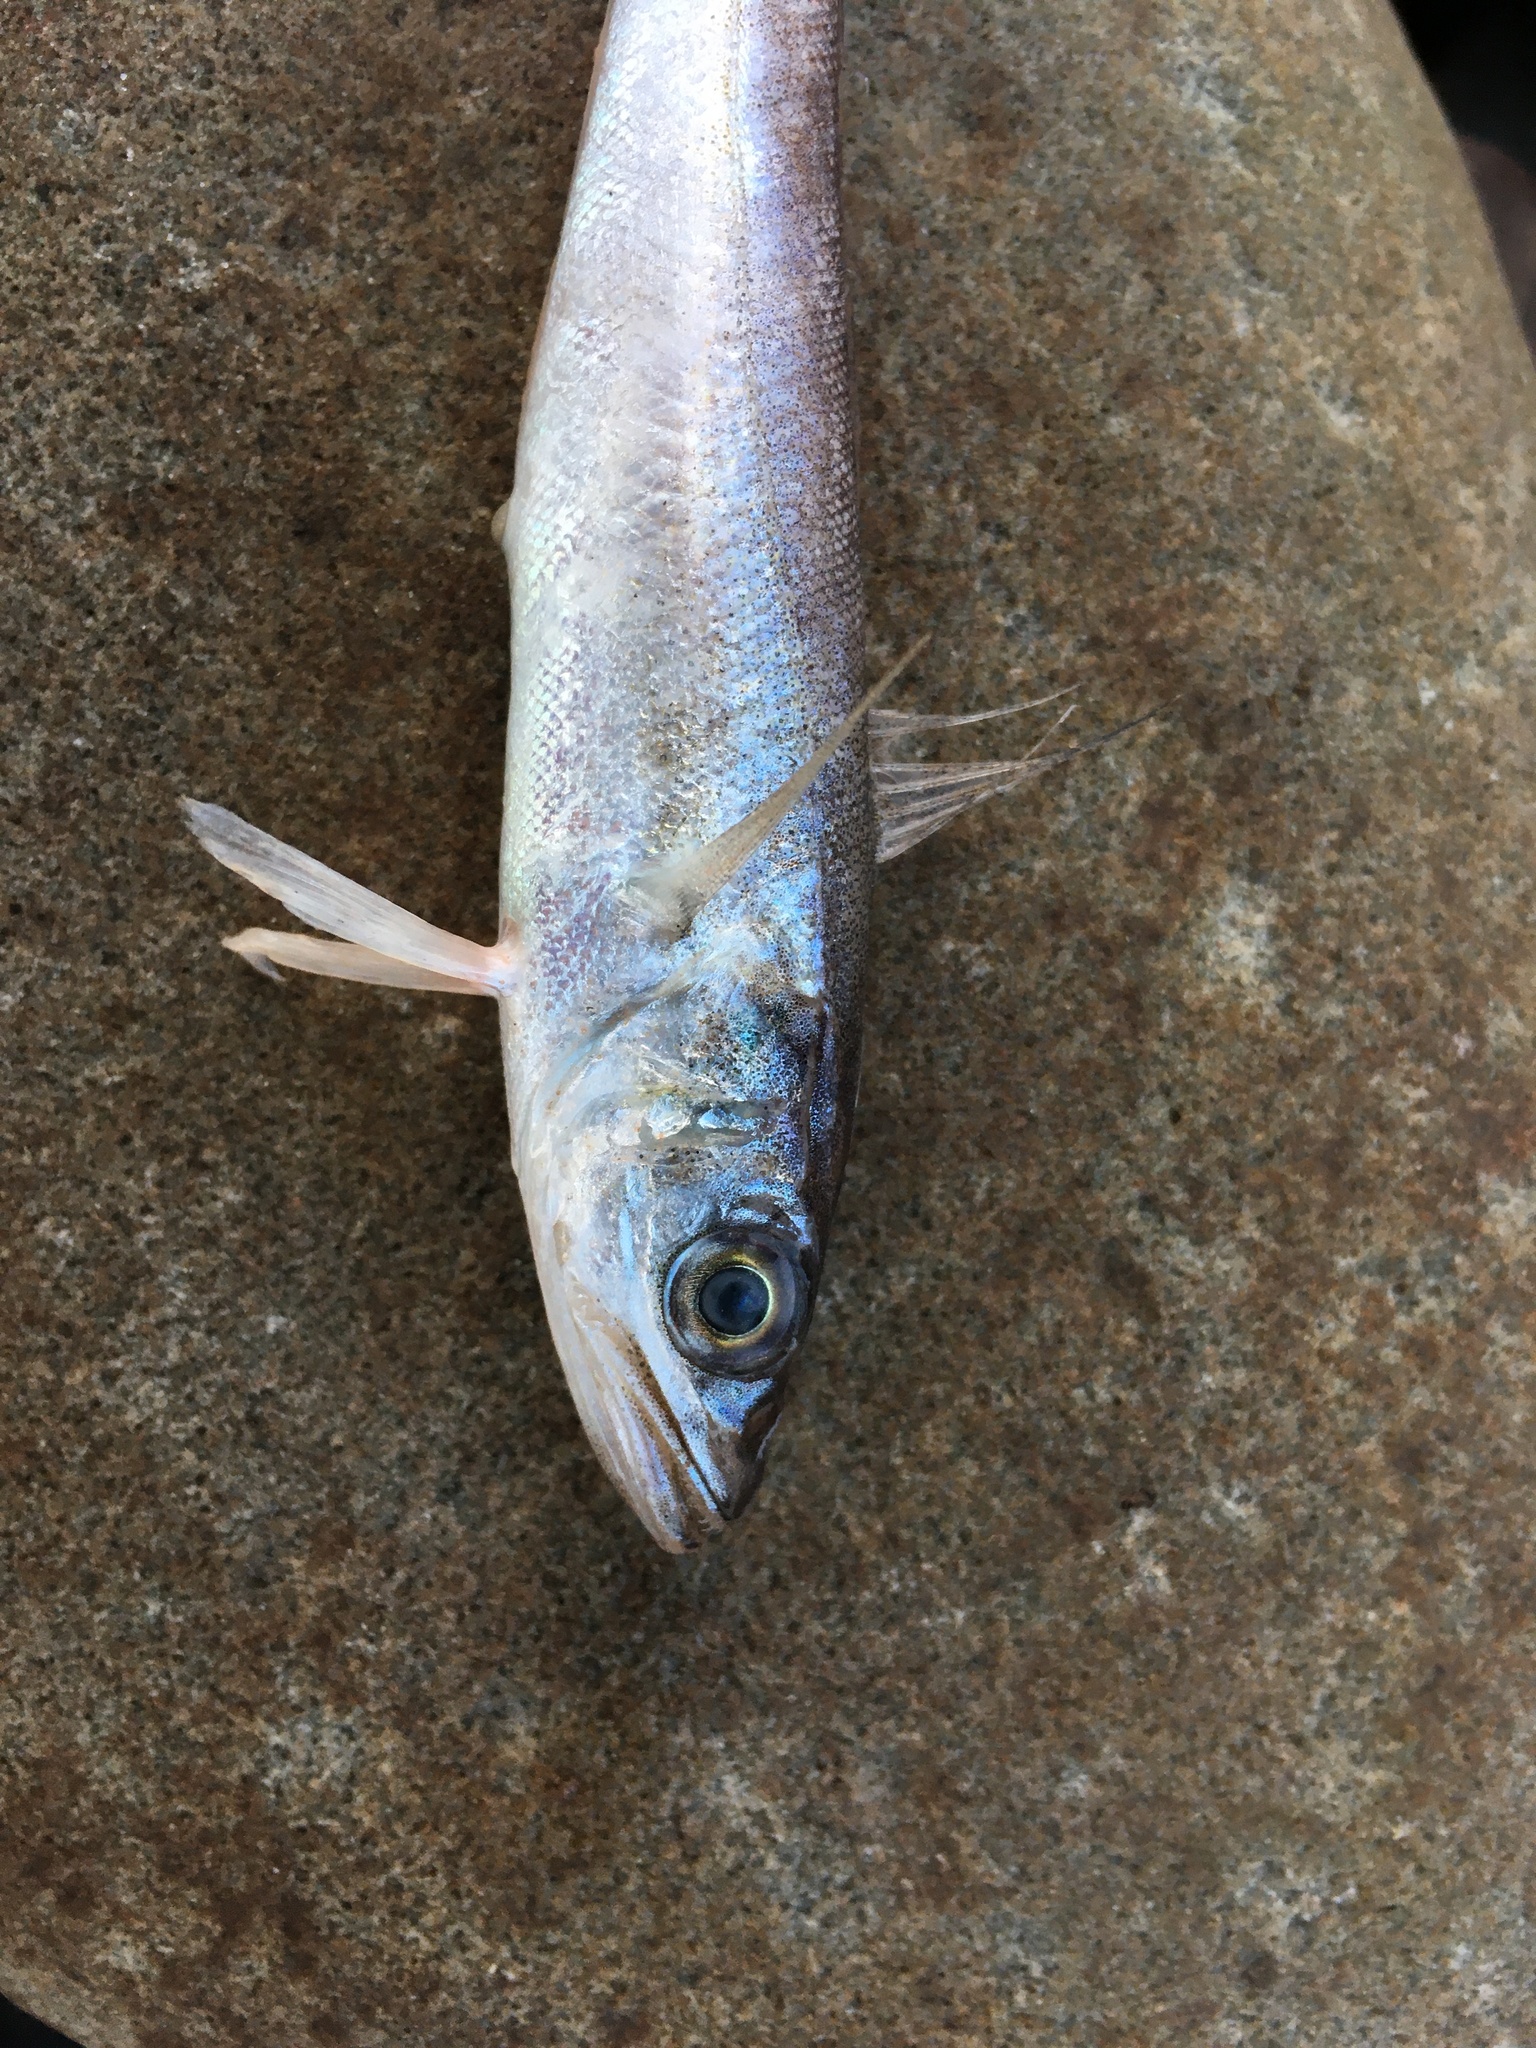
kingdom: Animalia
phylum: Chordata
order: Gadiformes
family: Merlucciidae
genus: Merluccius
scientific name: Merluccius bilinearis
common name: Silver hake
